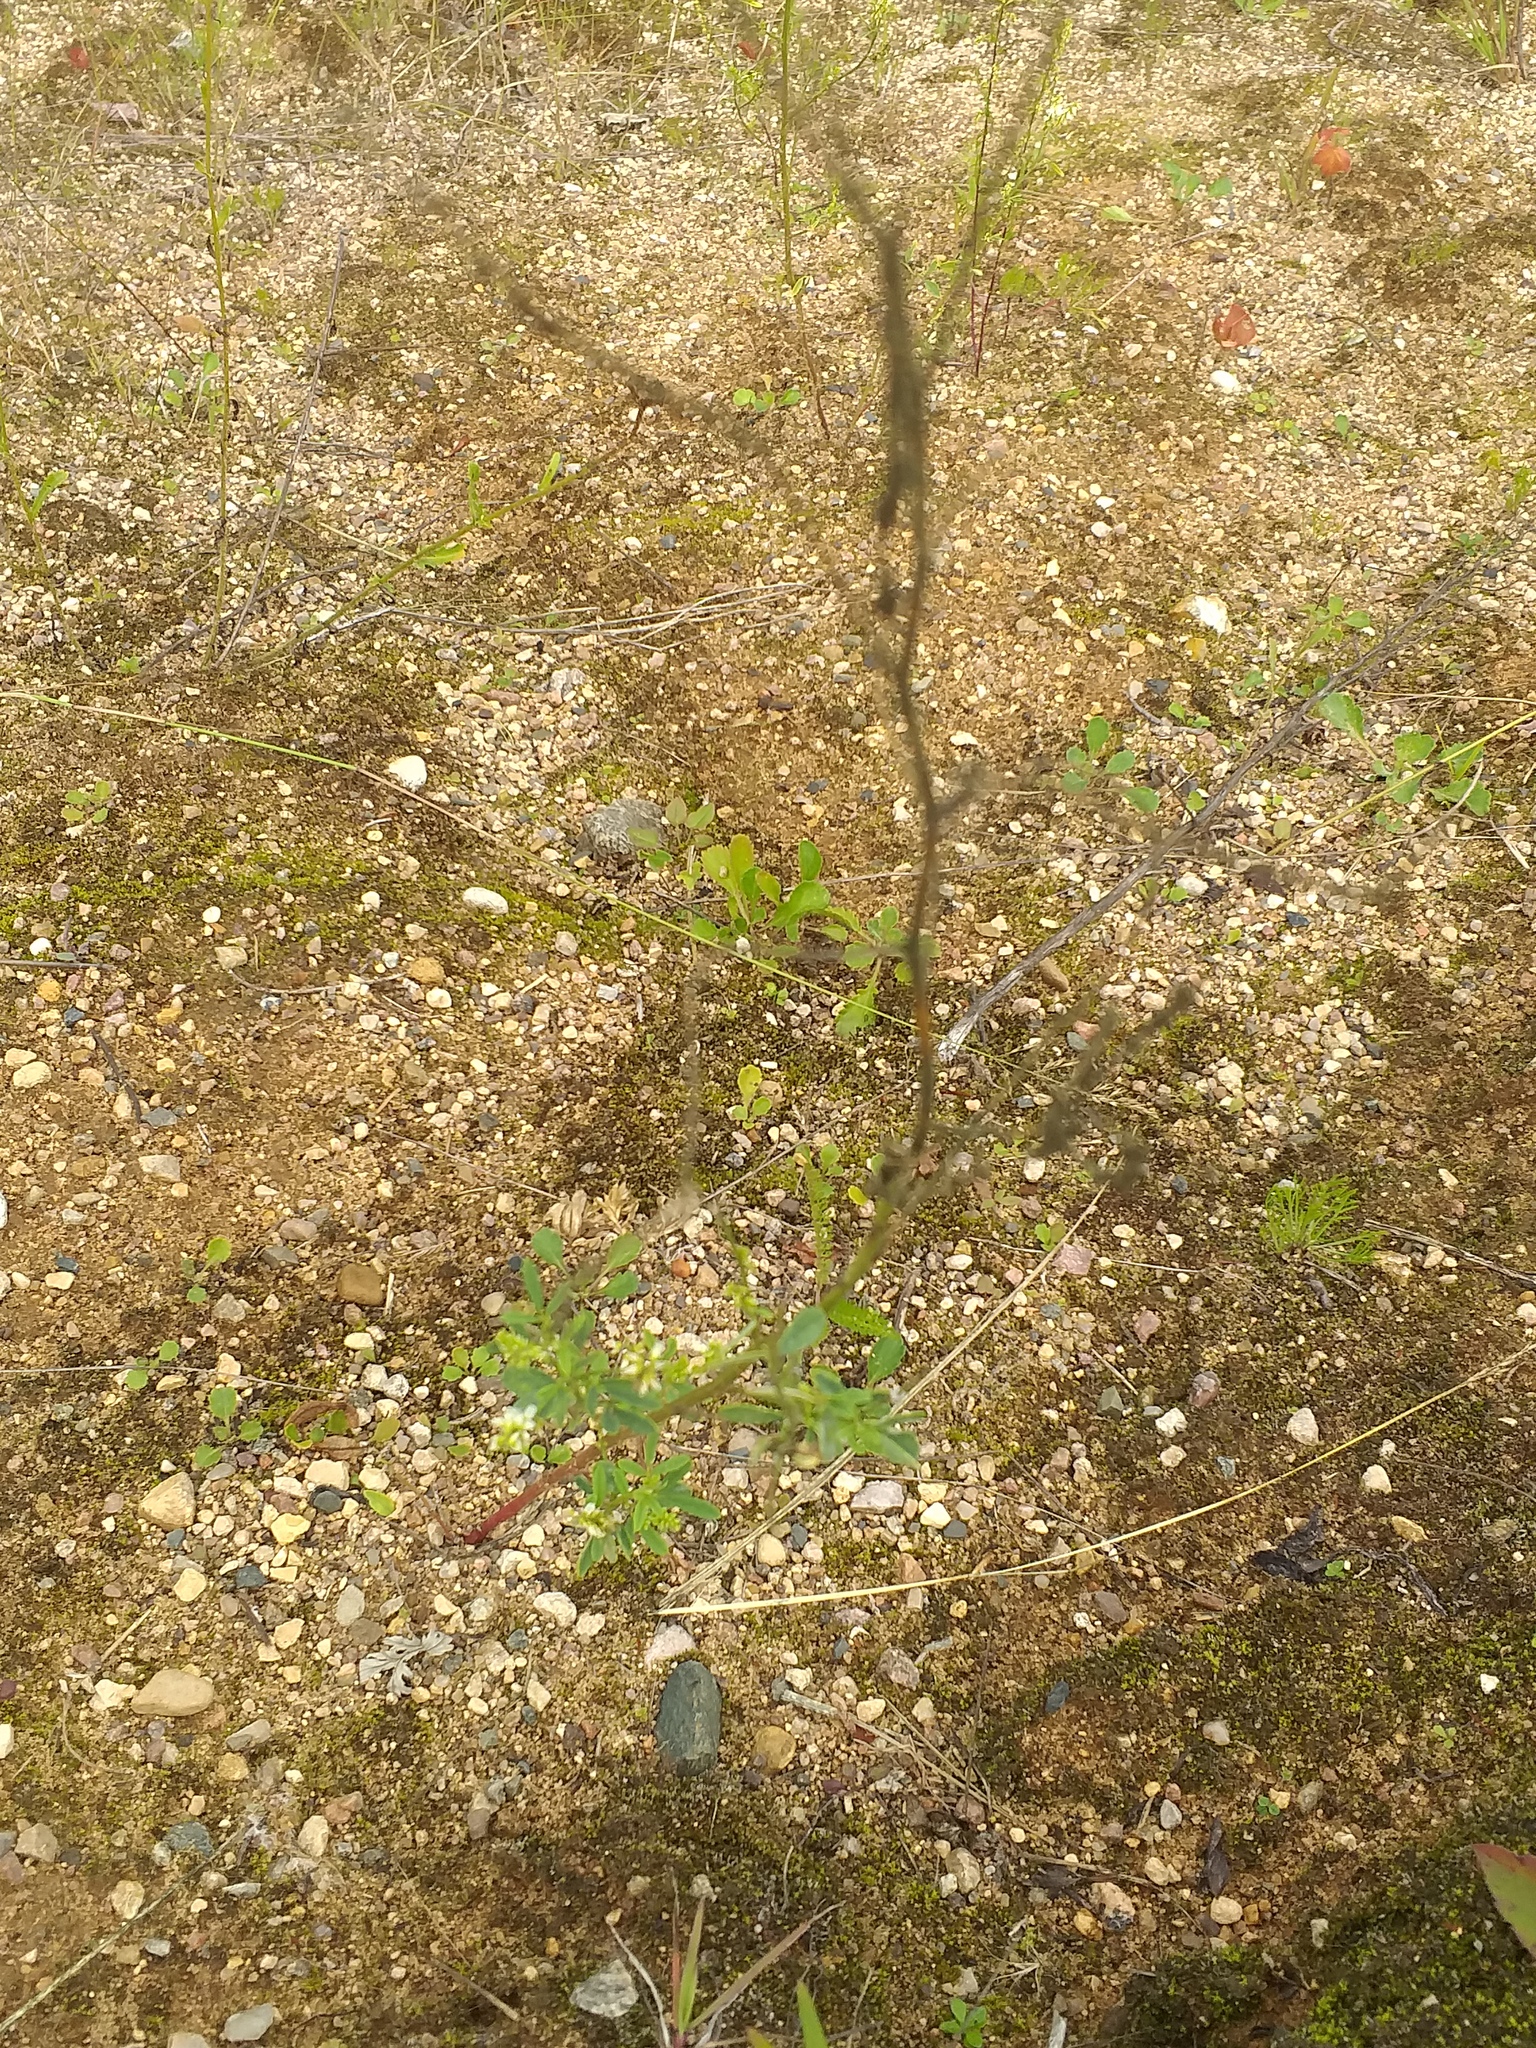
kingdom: Plantae
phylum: Tracheophyta
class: Magnoliopsida
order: Fabales
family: Fabaceae
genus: Melilotus
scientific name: Melilotus albus
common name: White melilot
